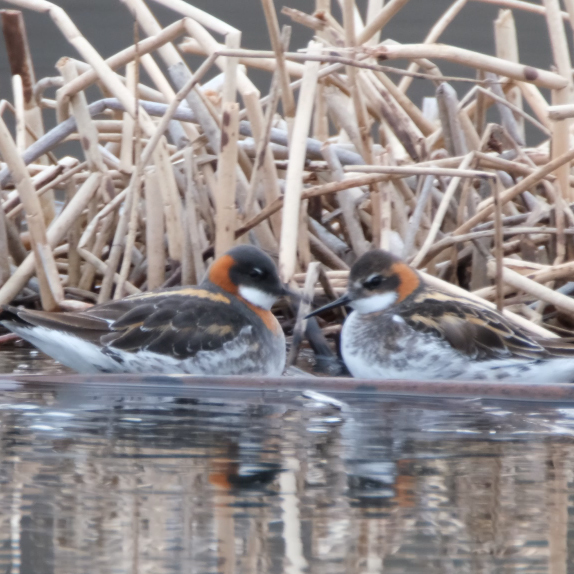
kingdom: Animalia
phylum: Chordata
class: Aves
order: Charadriiformes
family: Scolopacidae
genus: Phalaropus
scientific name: Phalaropus lobatus
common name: Red-necked phalarope
